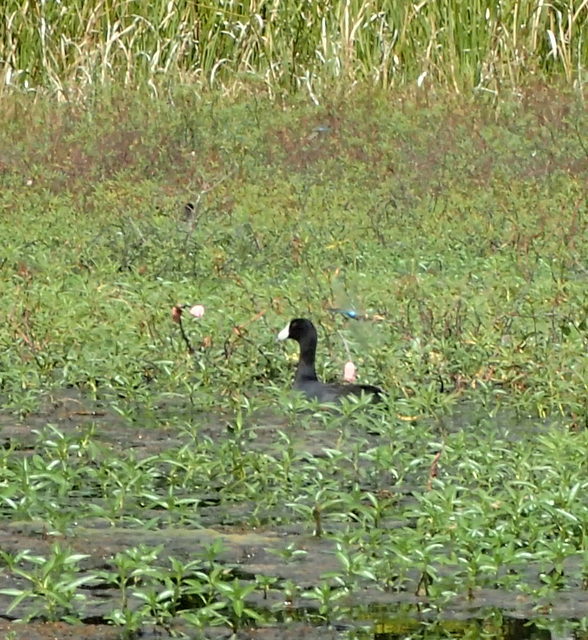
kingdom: Animalia
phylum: Chordata
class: Aves
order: Gruiformes
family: Rallidae
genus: Fulica
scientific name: Fulica americana
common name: American coot
